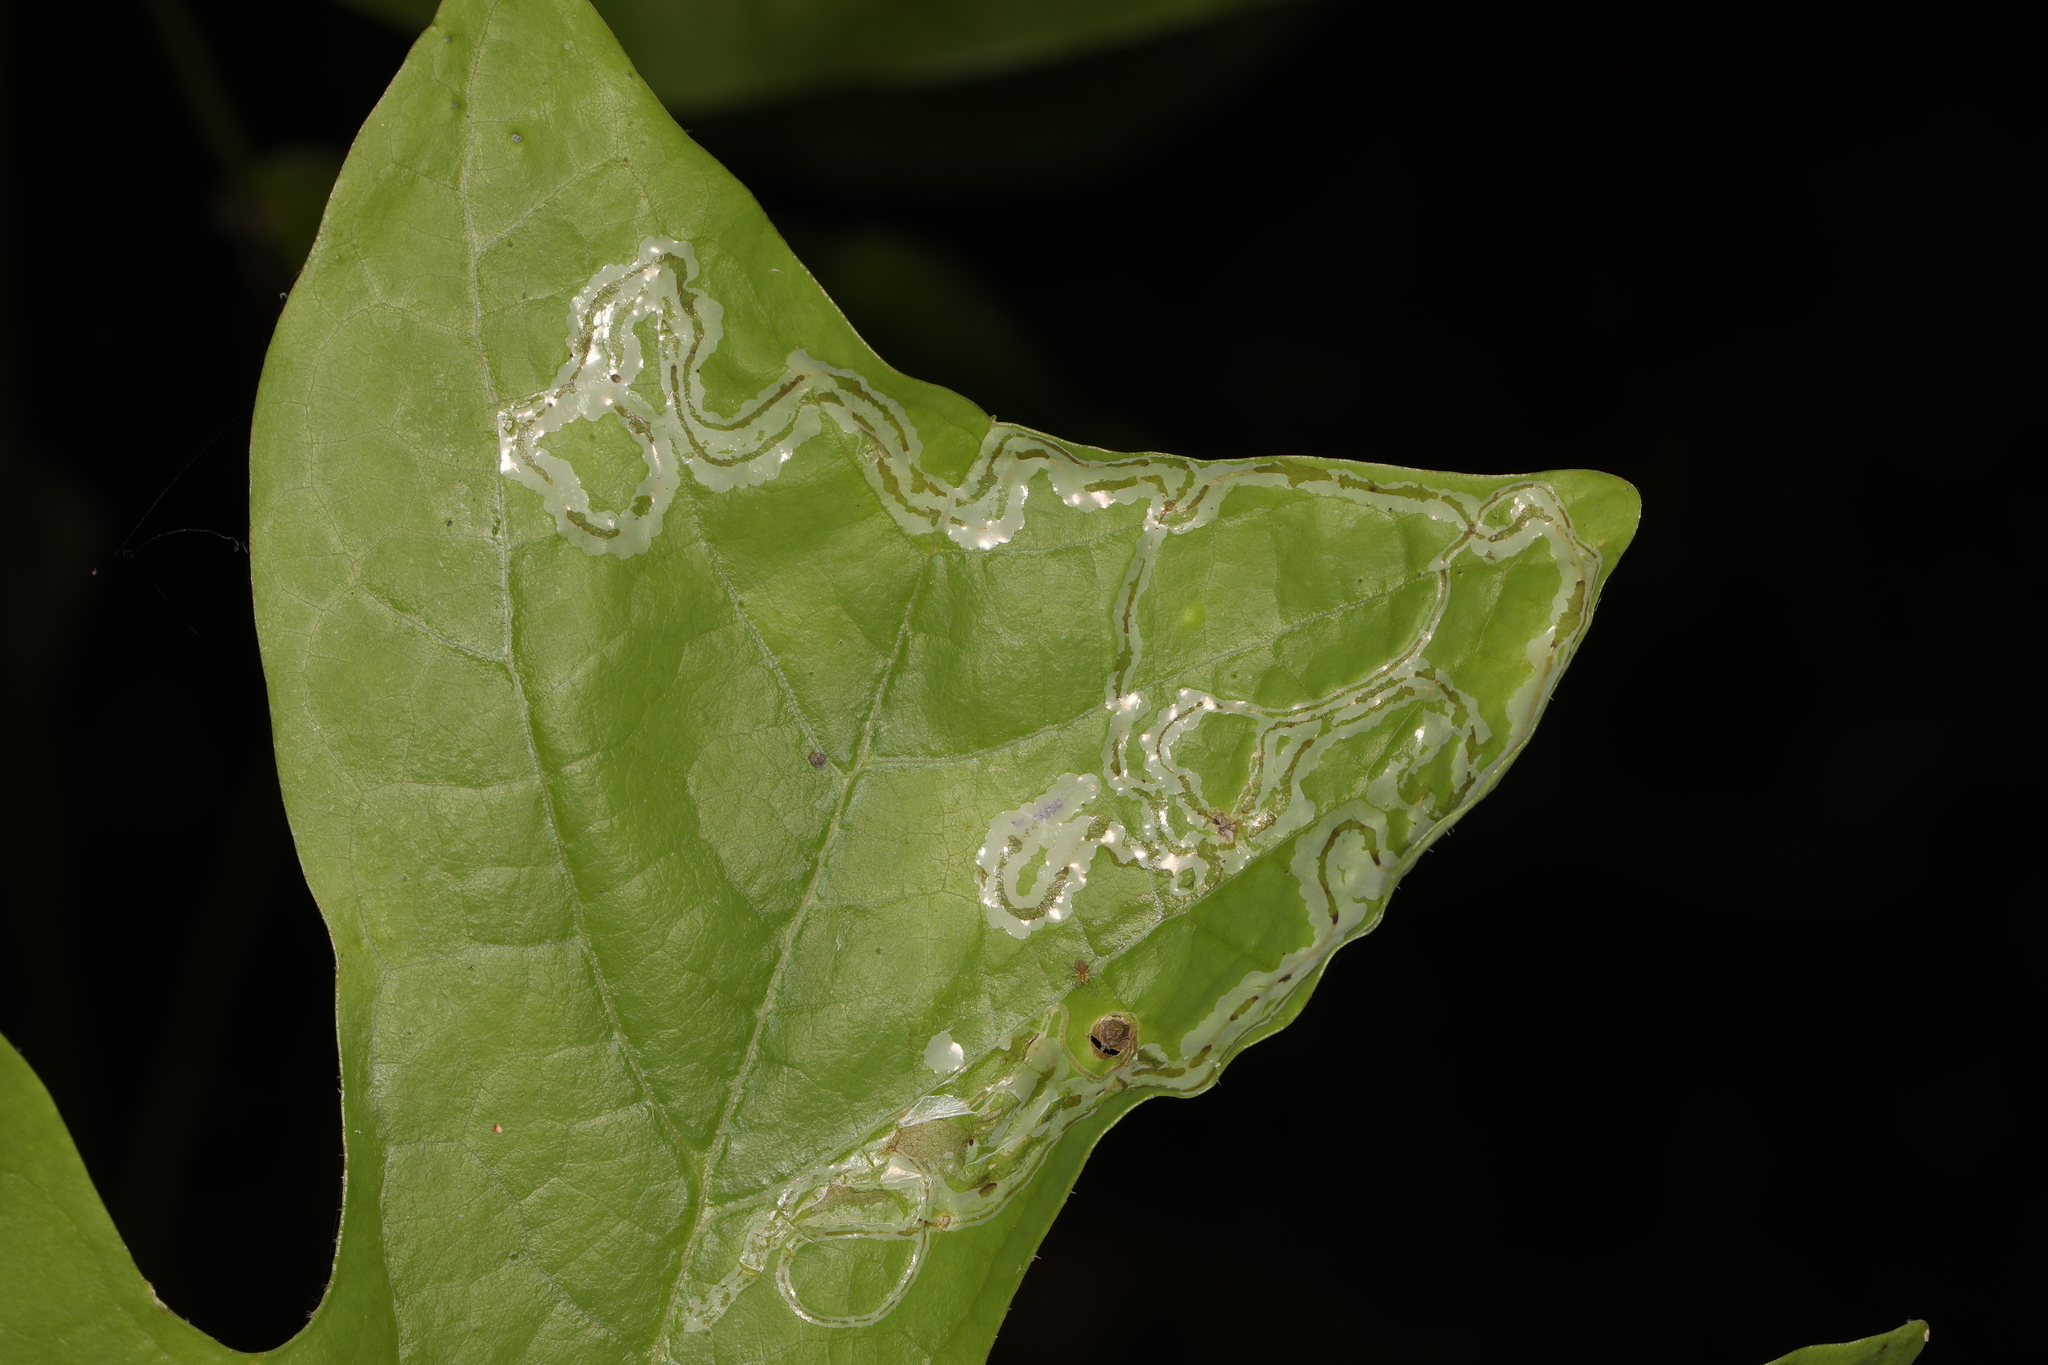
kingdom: Animalia
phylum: Arthropoda
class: Insecta
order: Lepidoptera
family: Gracillariidae
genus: Phyllocnistis
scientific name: Phyllocnistis liriodendronella
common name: Tulip tree leaf miner
